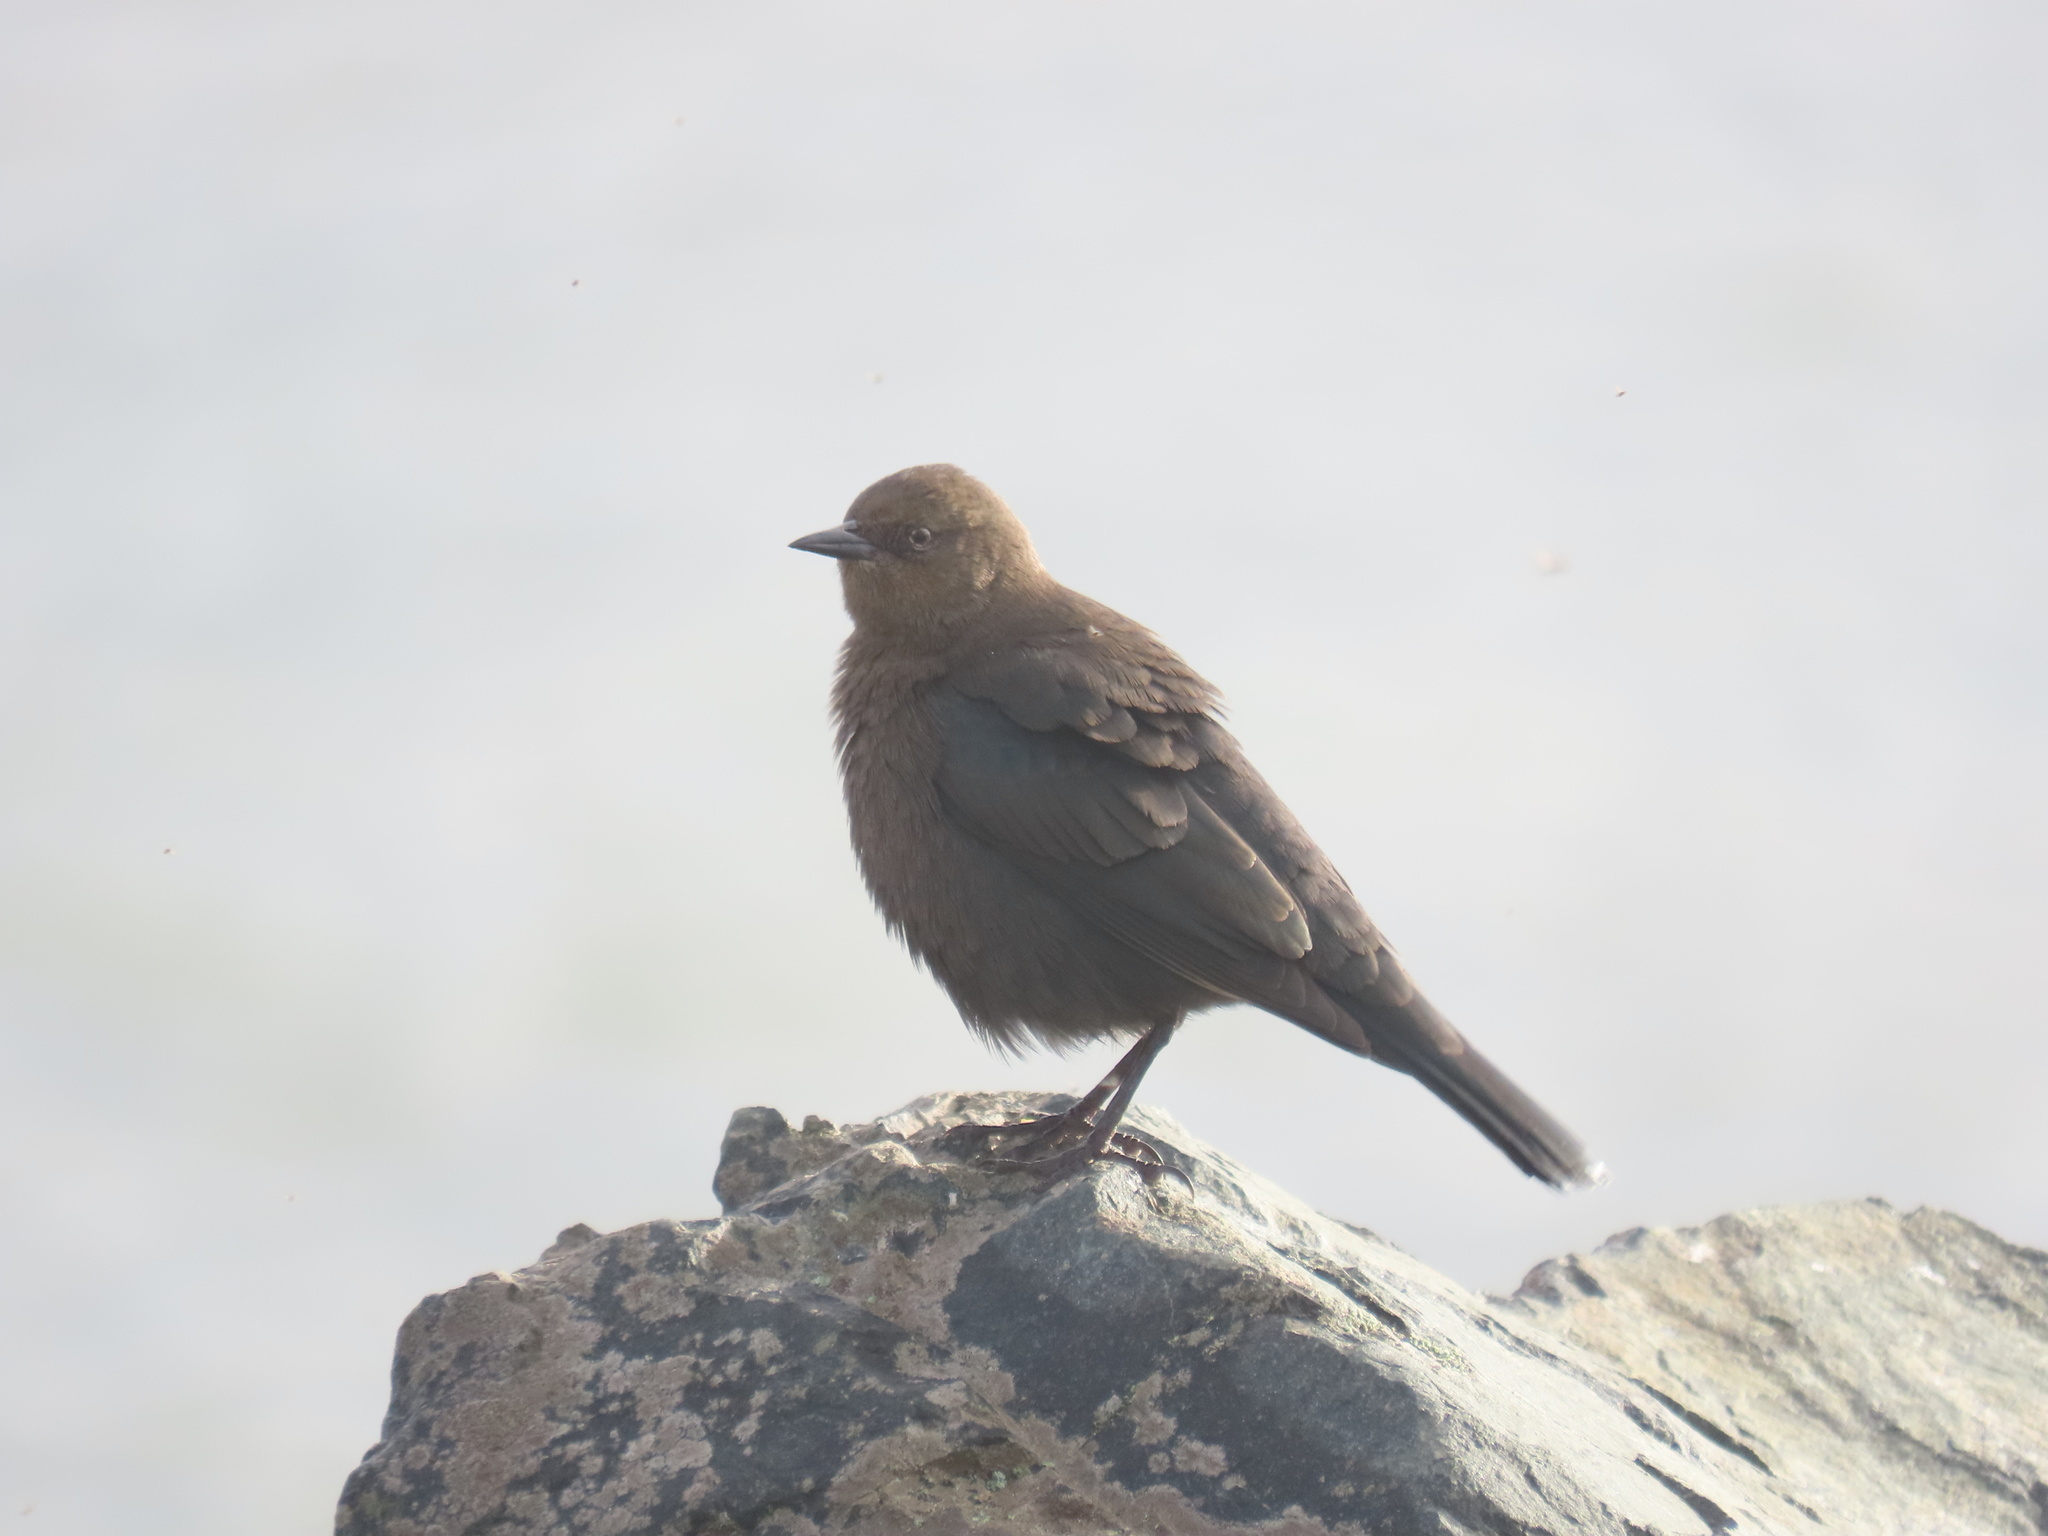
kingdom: Animalia
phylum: Chordata
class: Aves
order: Passeriformes
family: Icteridae
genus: Euphagus
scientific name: Euphagus cyanocephalus
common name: Brewer's blackbird
